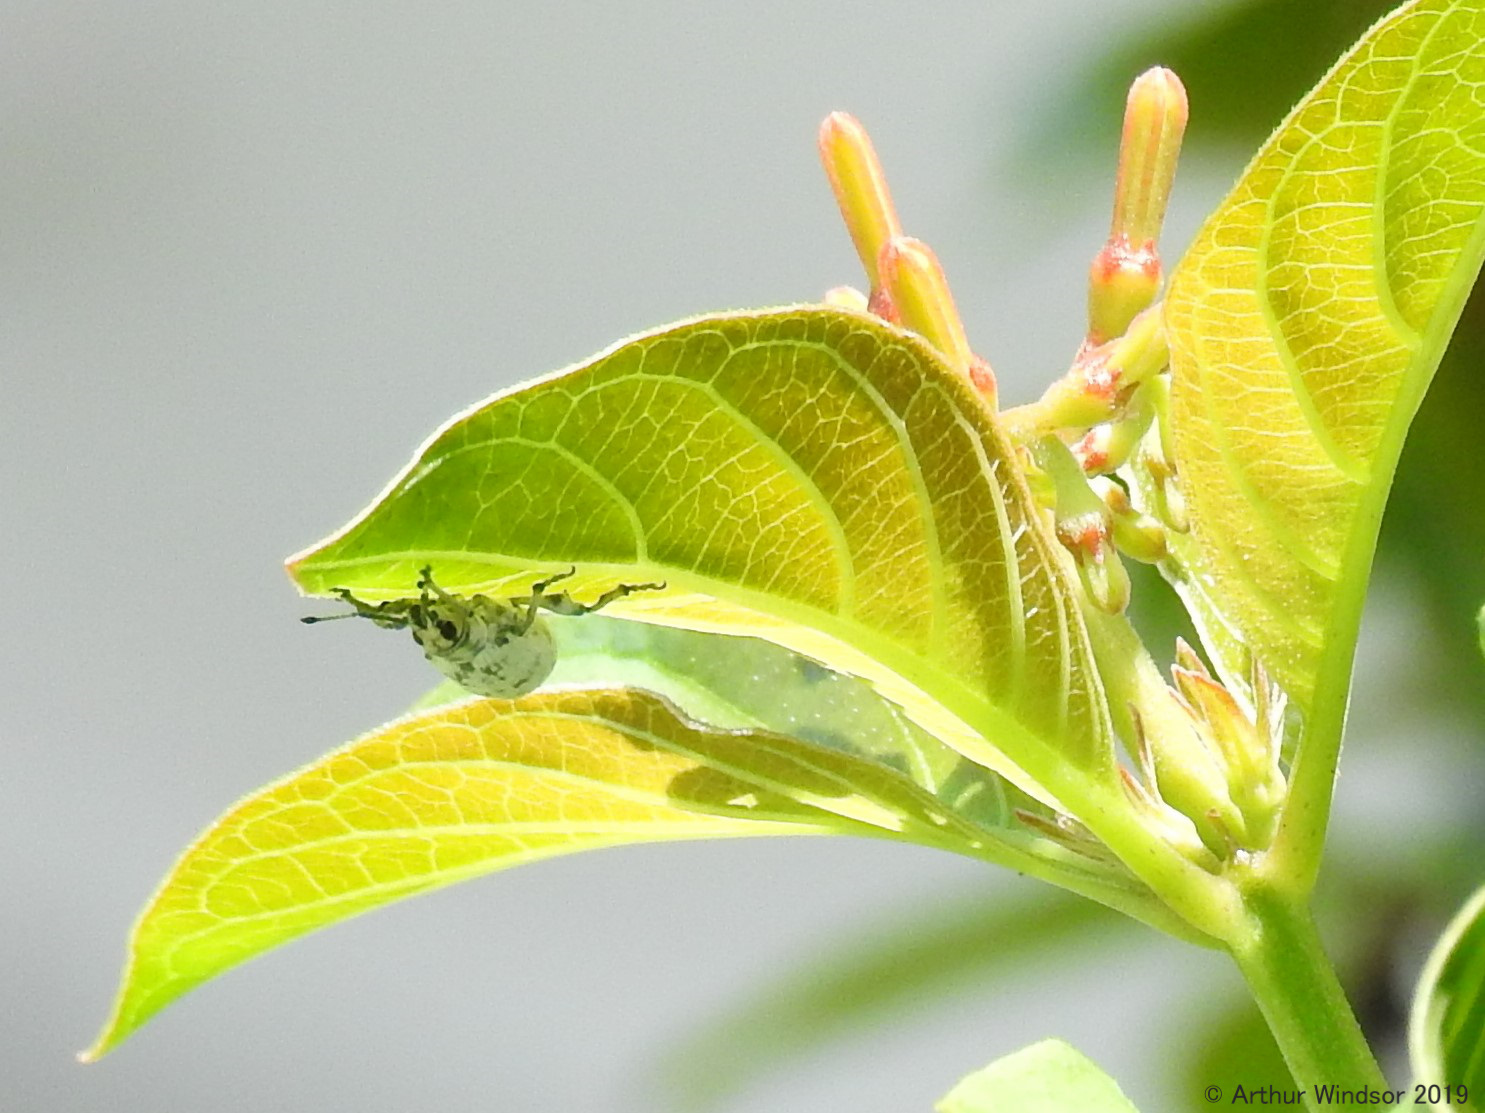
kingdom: Animalia
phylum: Arthropoda
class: Insecta
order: Coleoptera
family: Curculionidae
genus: Myllocerus
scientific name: Myllocerus undecimpustulatus
